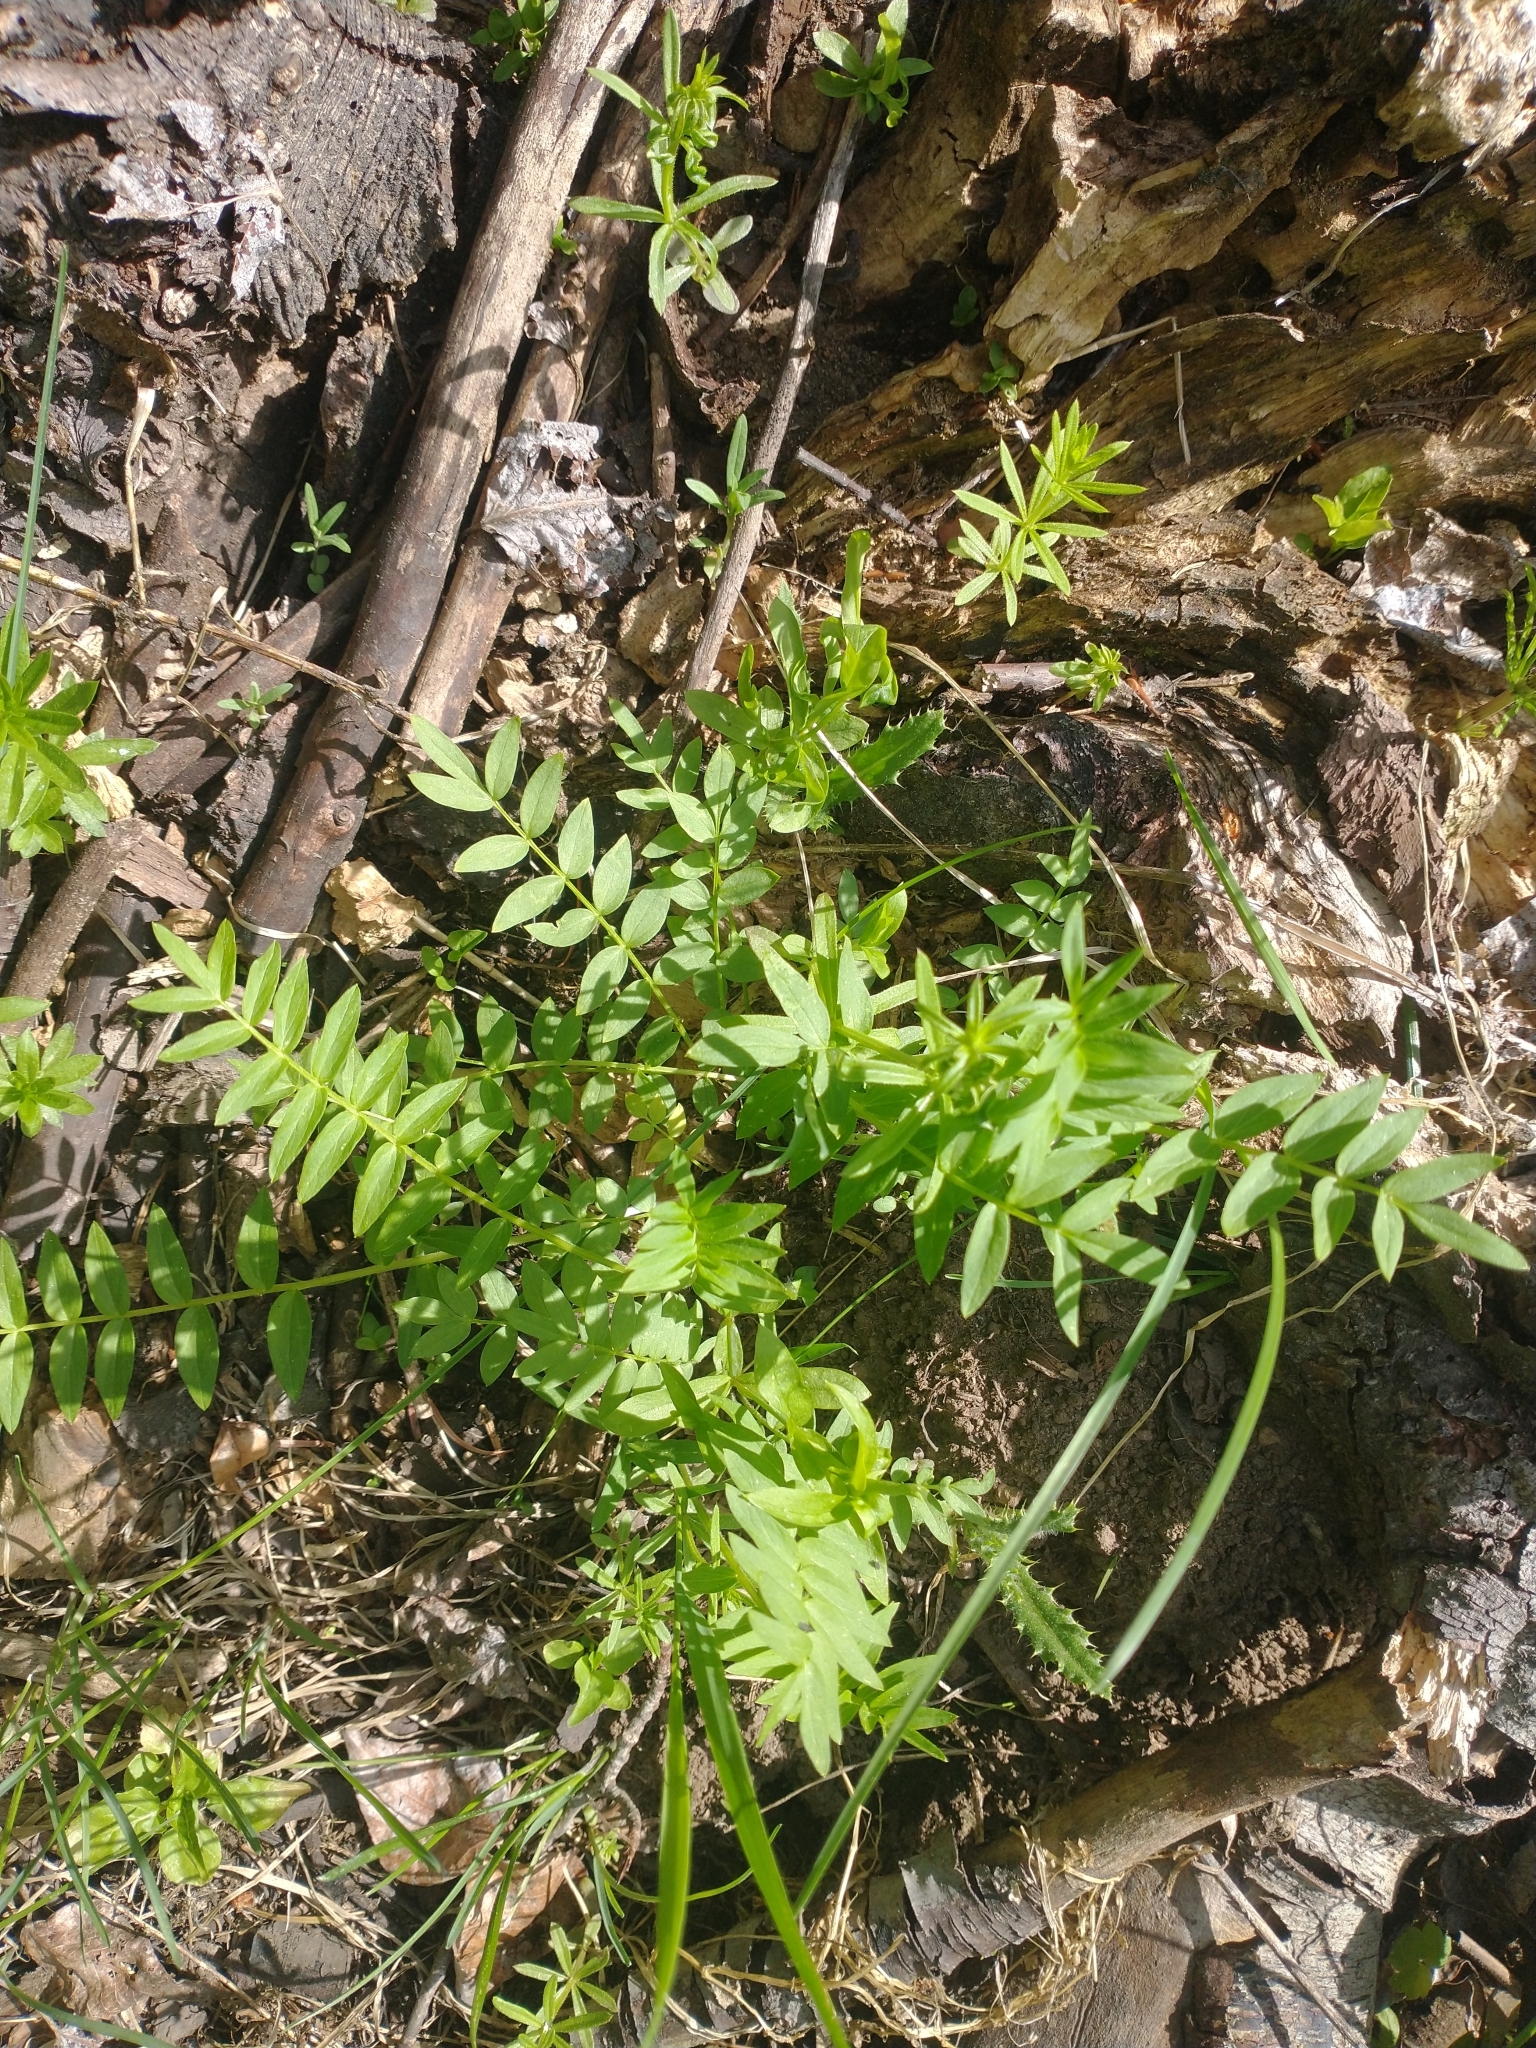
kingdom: Plantae
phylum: Tracheophyta
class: Magnoliopsida
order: Ericales
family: Polemoniaceae
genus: Polemonium
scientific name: Polemonium occidentale
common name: Western jacob's-ladder
